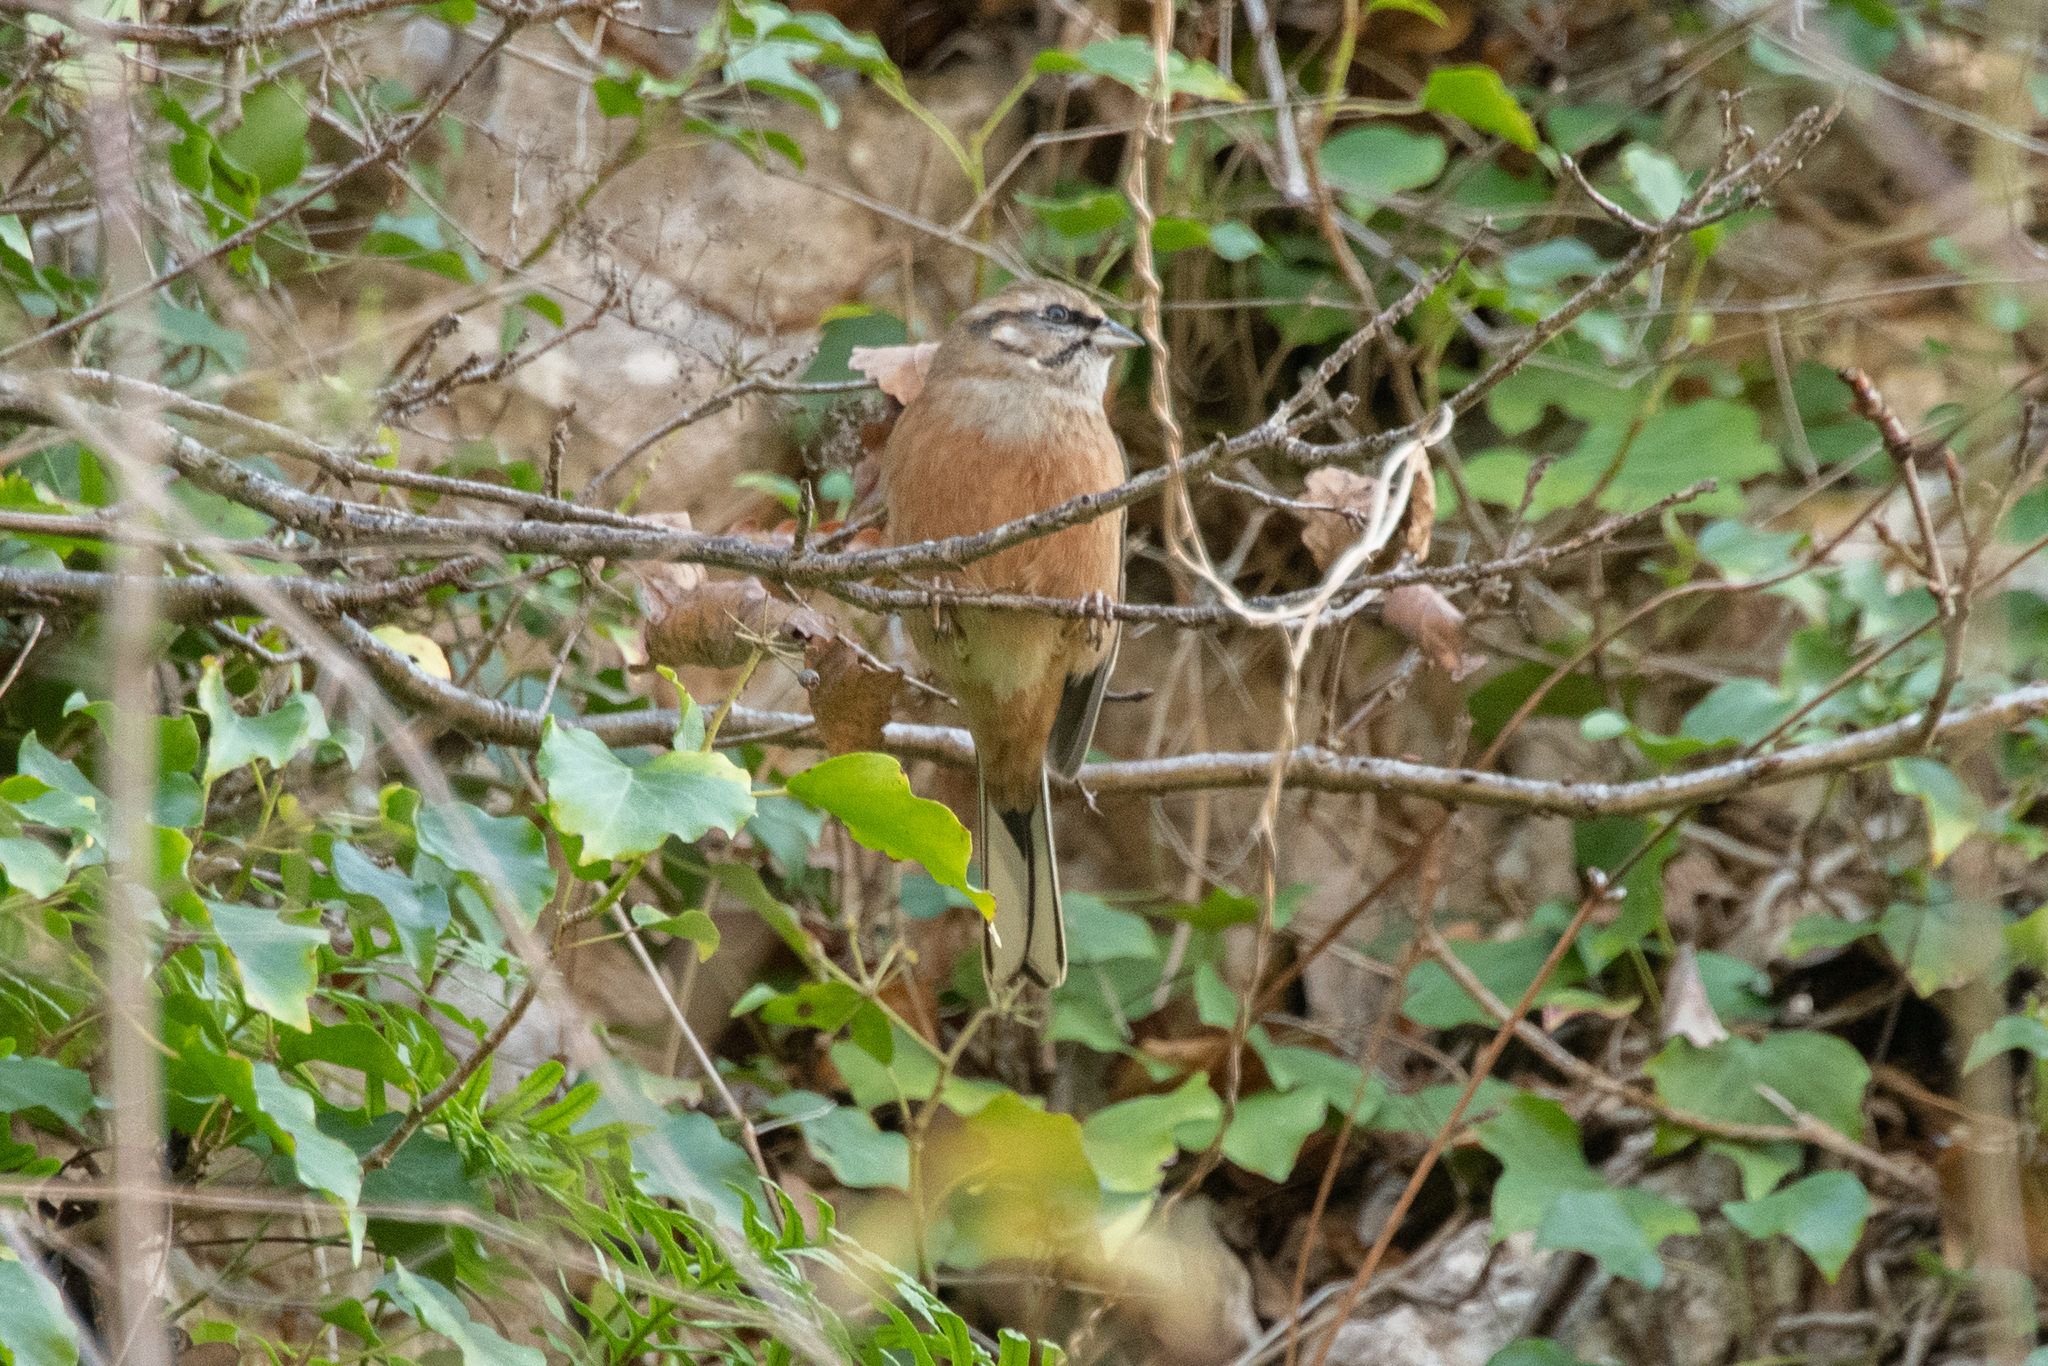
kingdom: Animalia
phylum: Chordata
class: Aves
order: Passeriformes
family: Emberizidae
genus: Emberiza
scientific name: Emberiza cia
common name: Rock bunting
